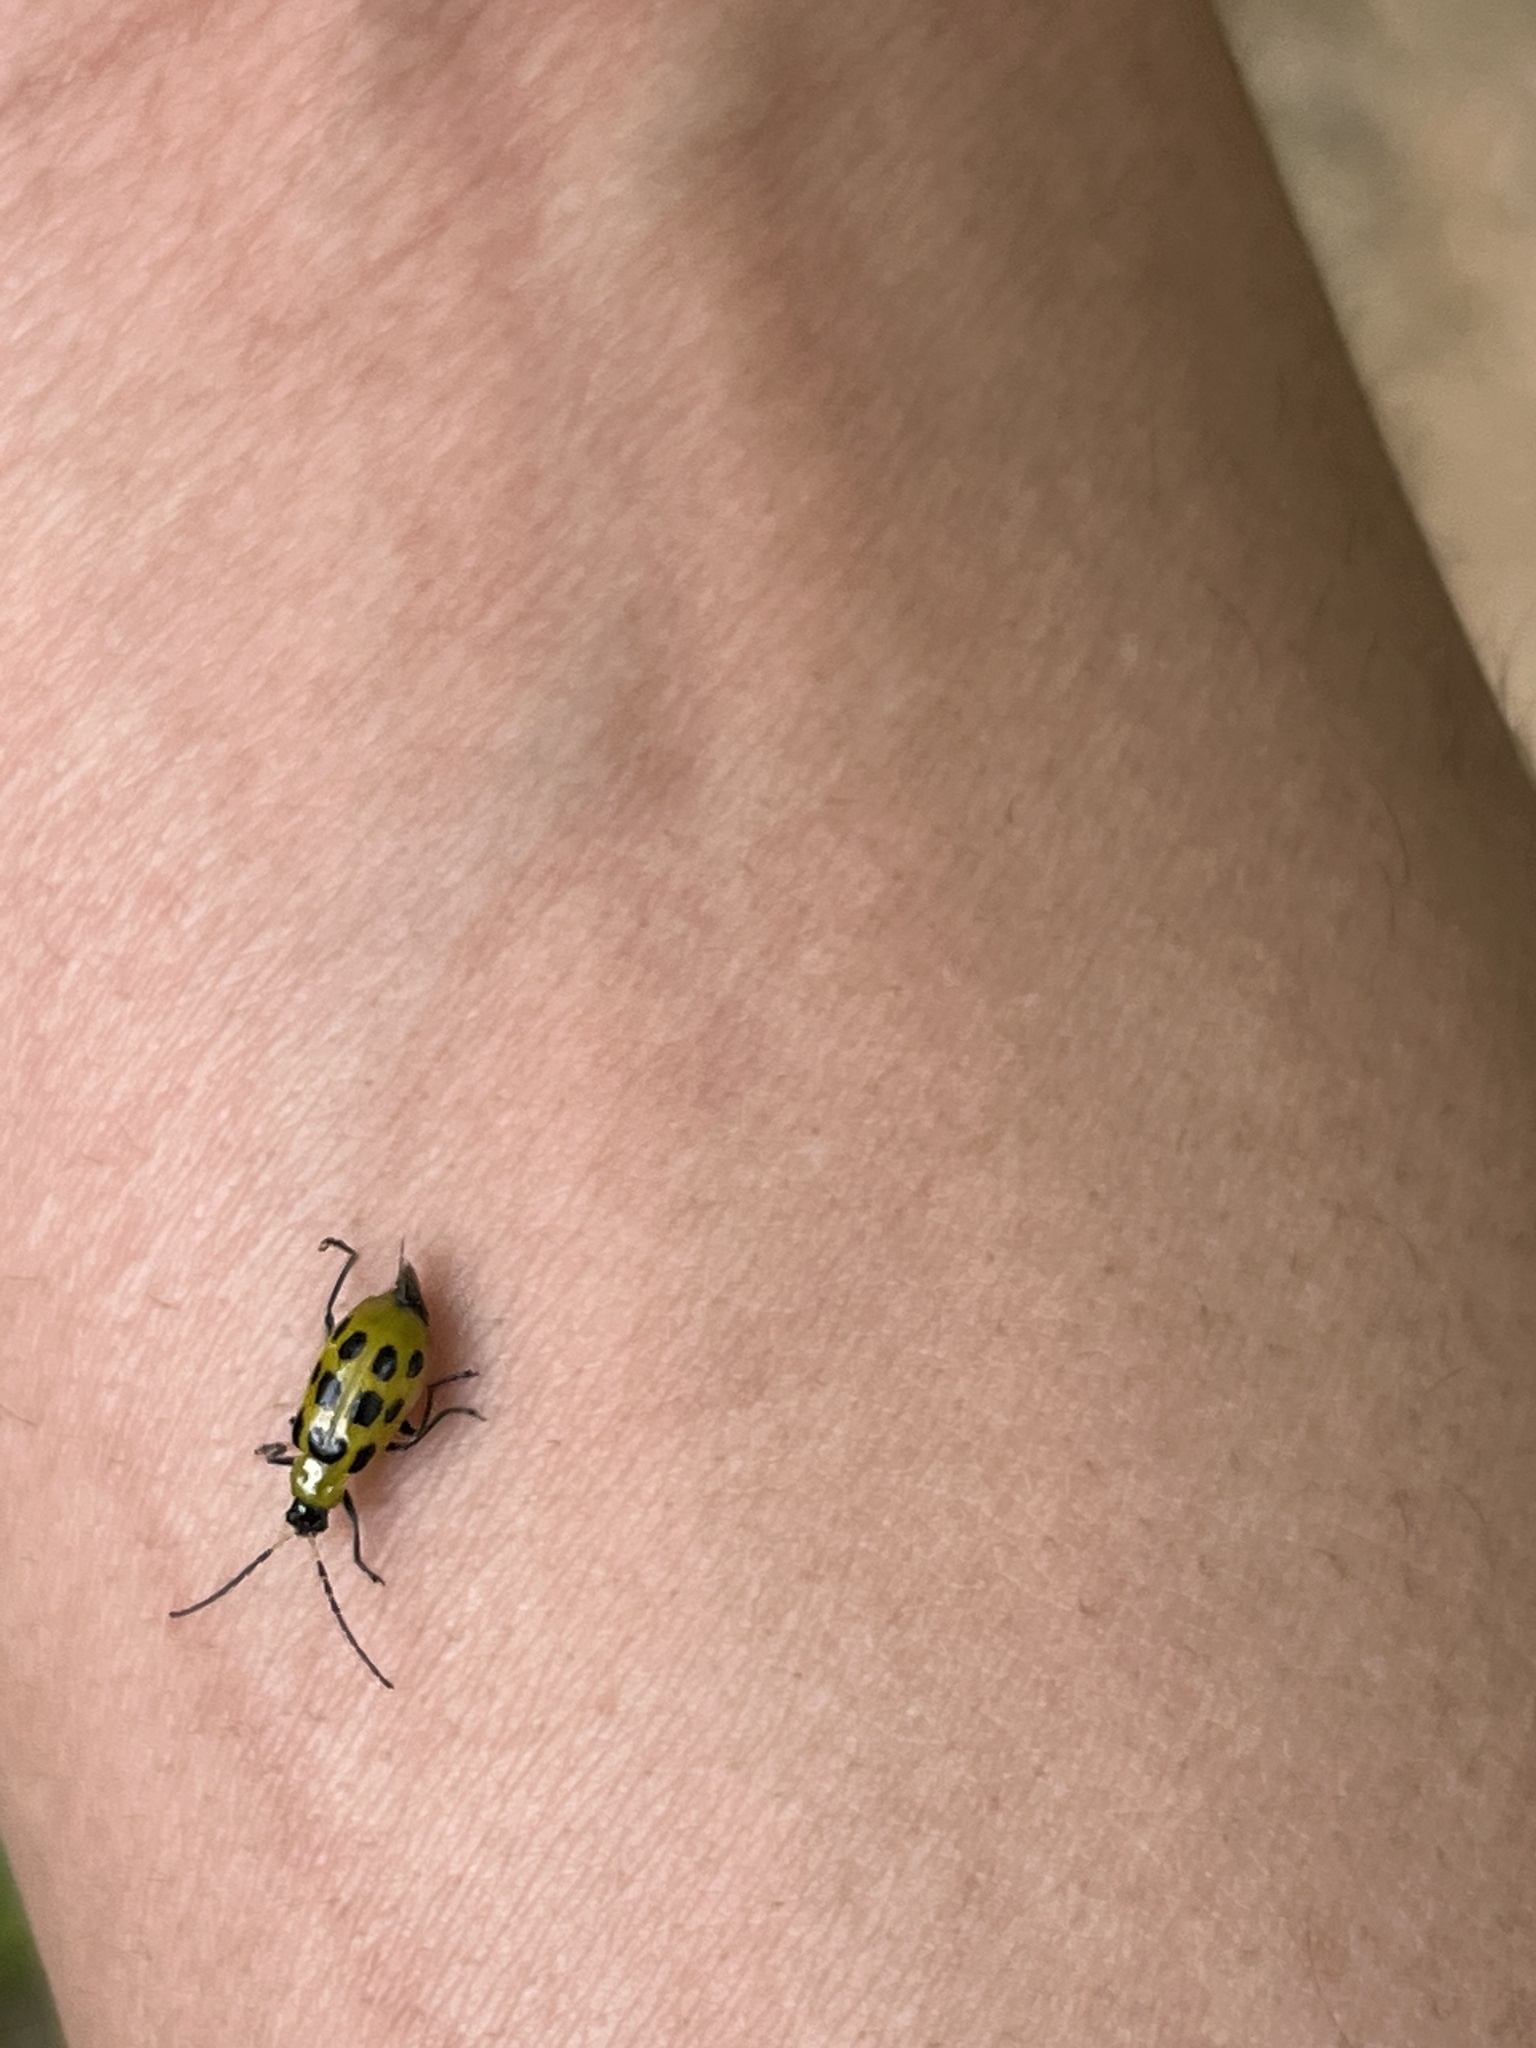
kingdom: Animalia
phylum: Arthropoda
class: Insecta
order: Coleoptera
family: Chrysomelidae
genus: Diabrotica
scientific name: Diabrotica undecimpunctata
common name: Spotted cucumber beetle
